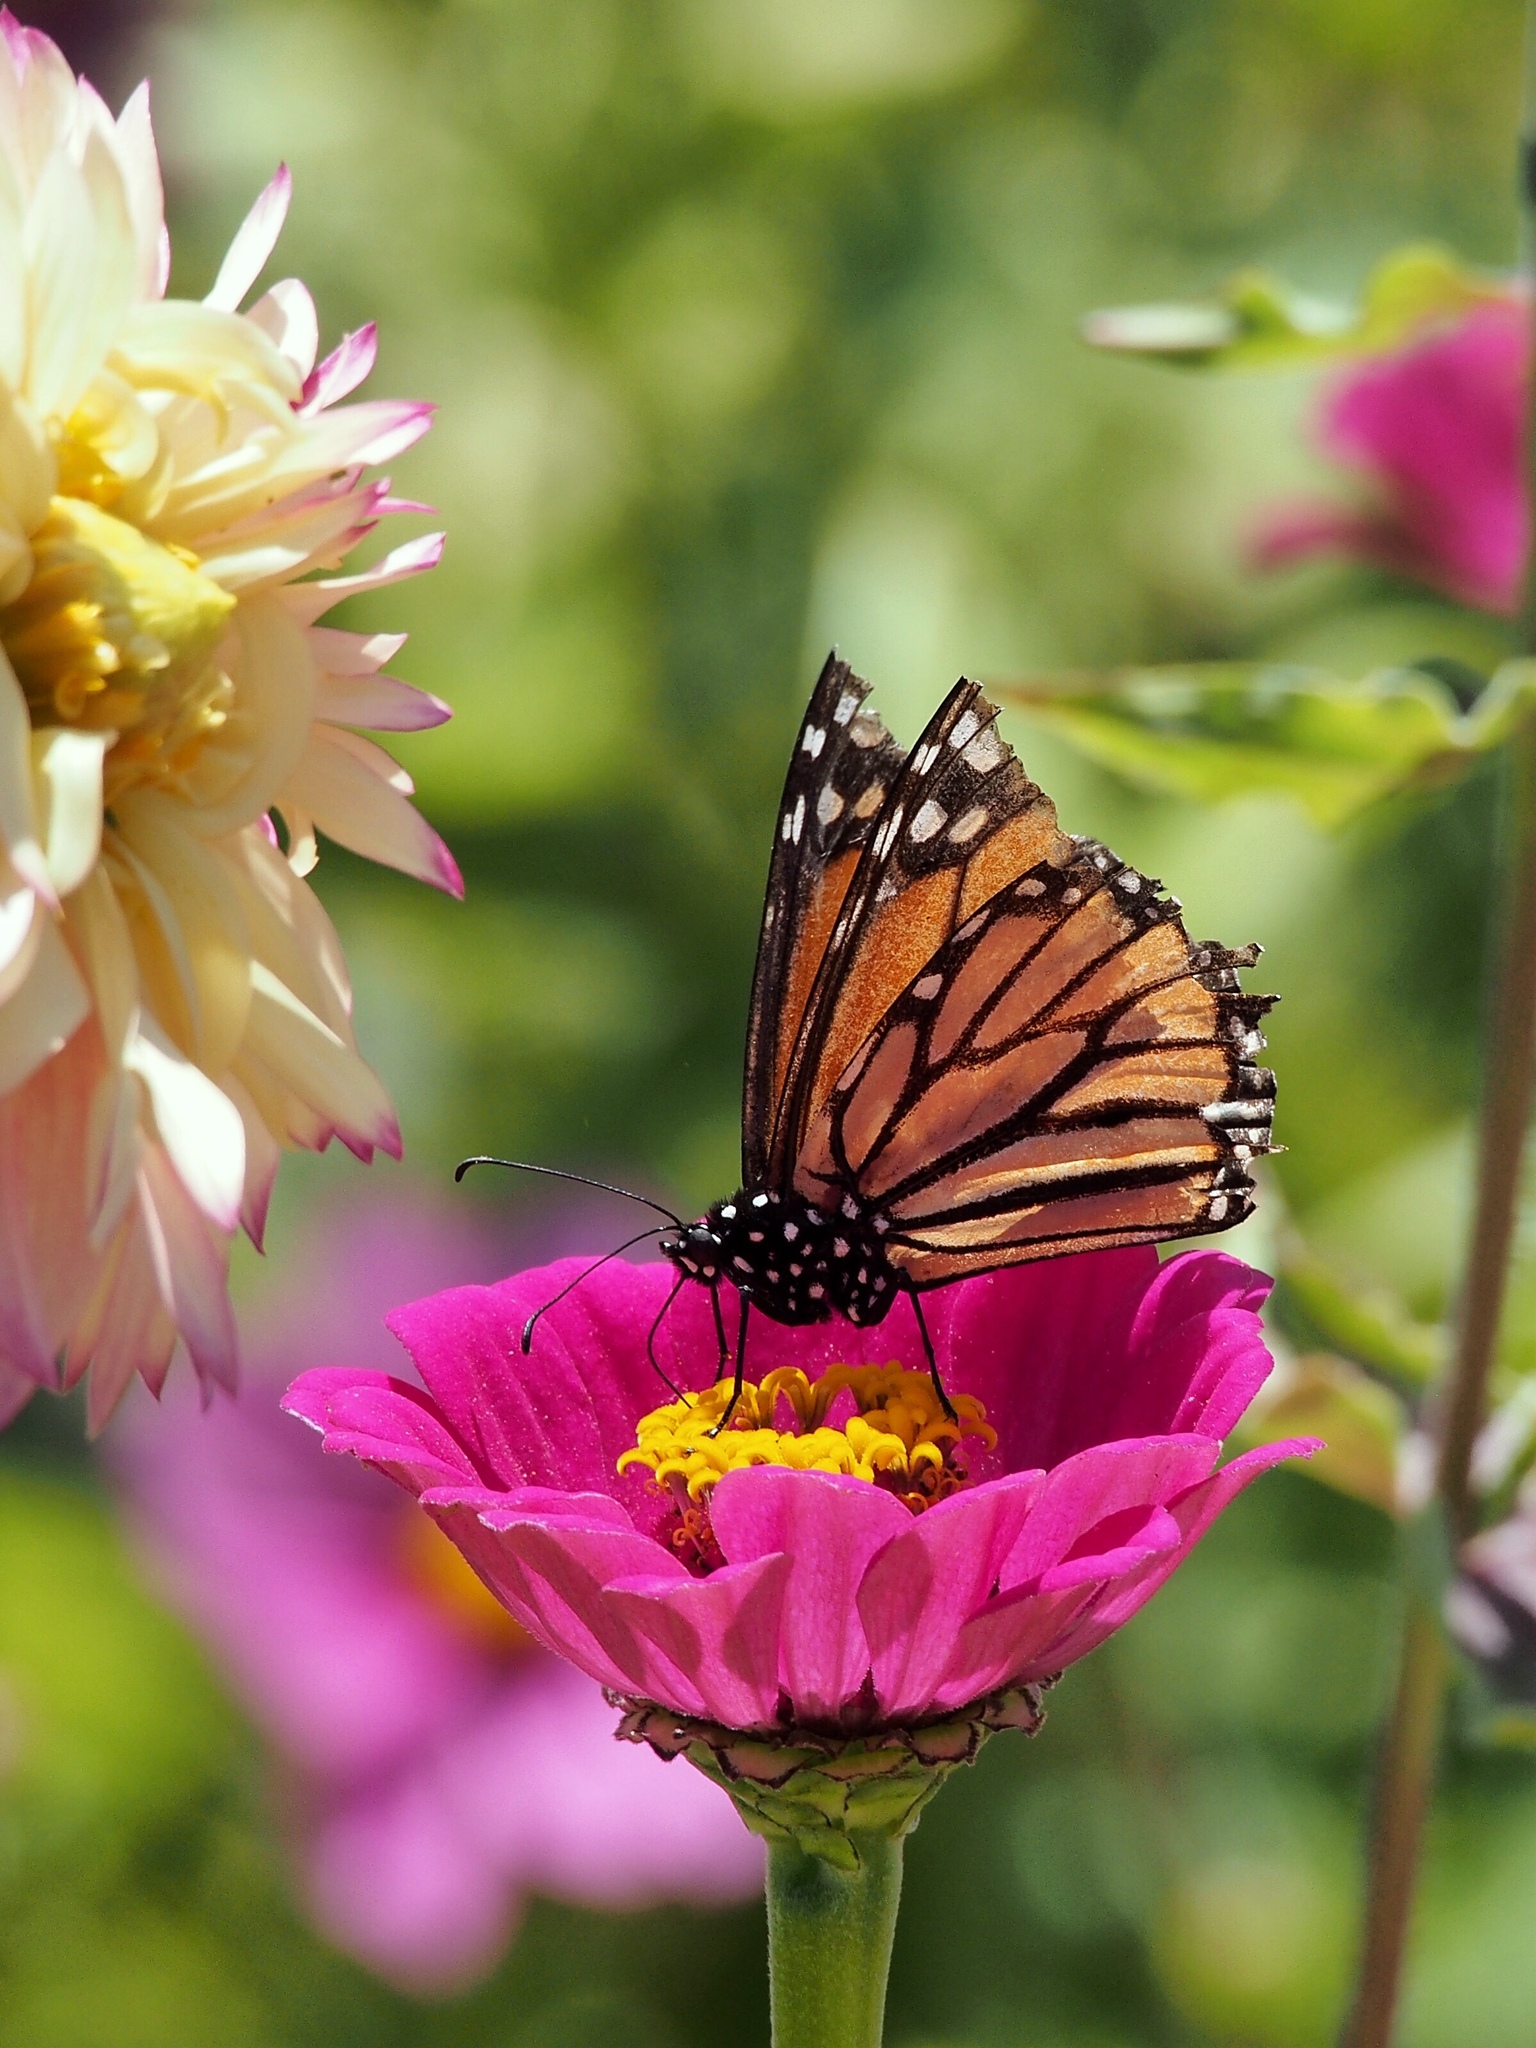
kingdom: Animalia
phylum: Arthropoda
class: Insecta
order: Lepidoptera
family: Nymphalidae
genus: Danaus
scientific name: Danaus plexippus
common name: Monarch
